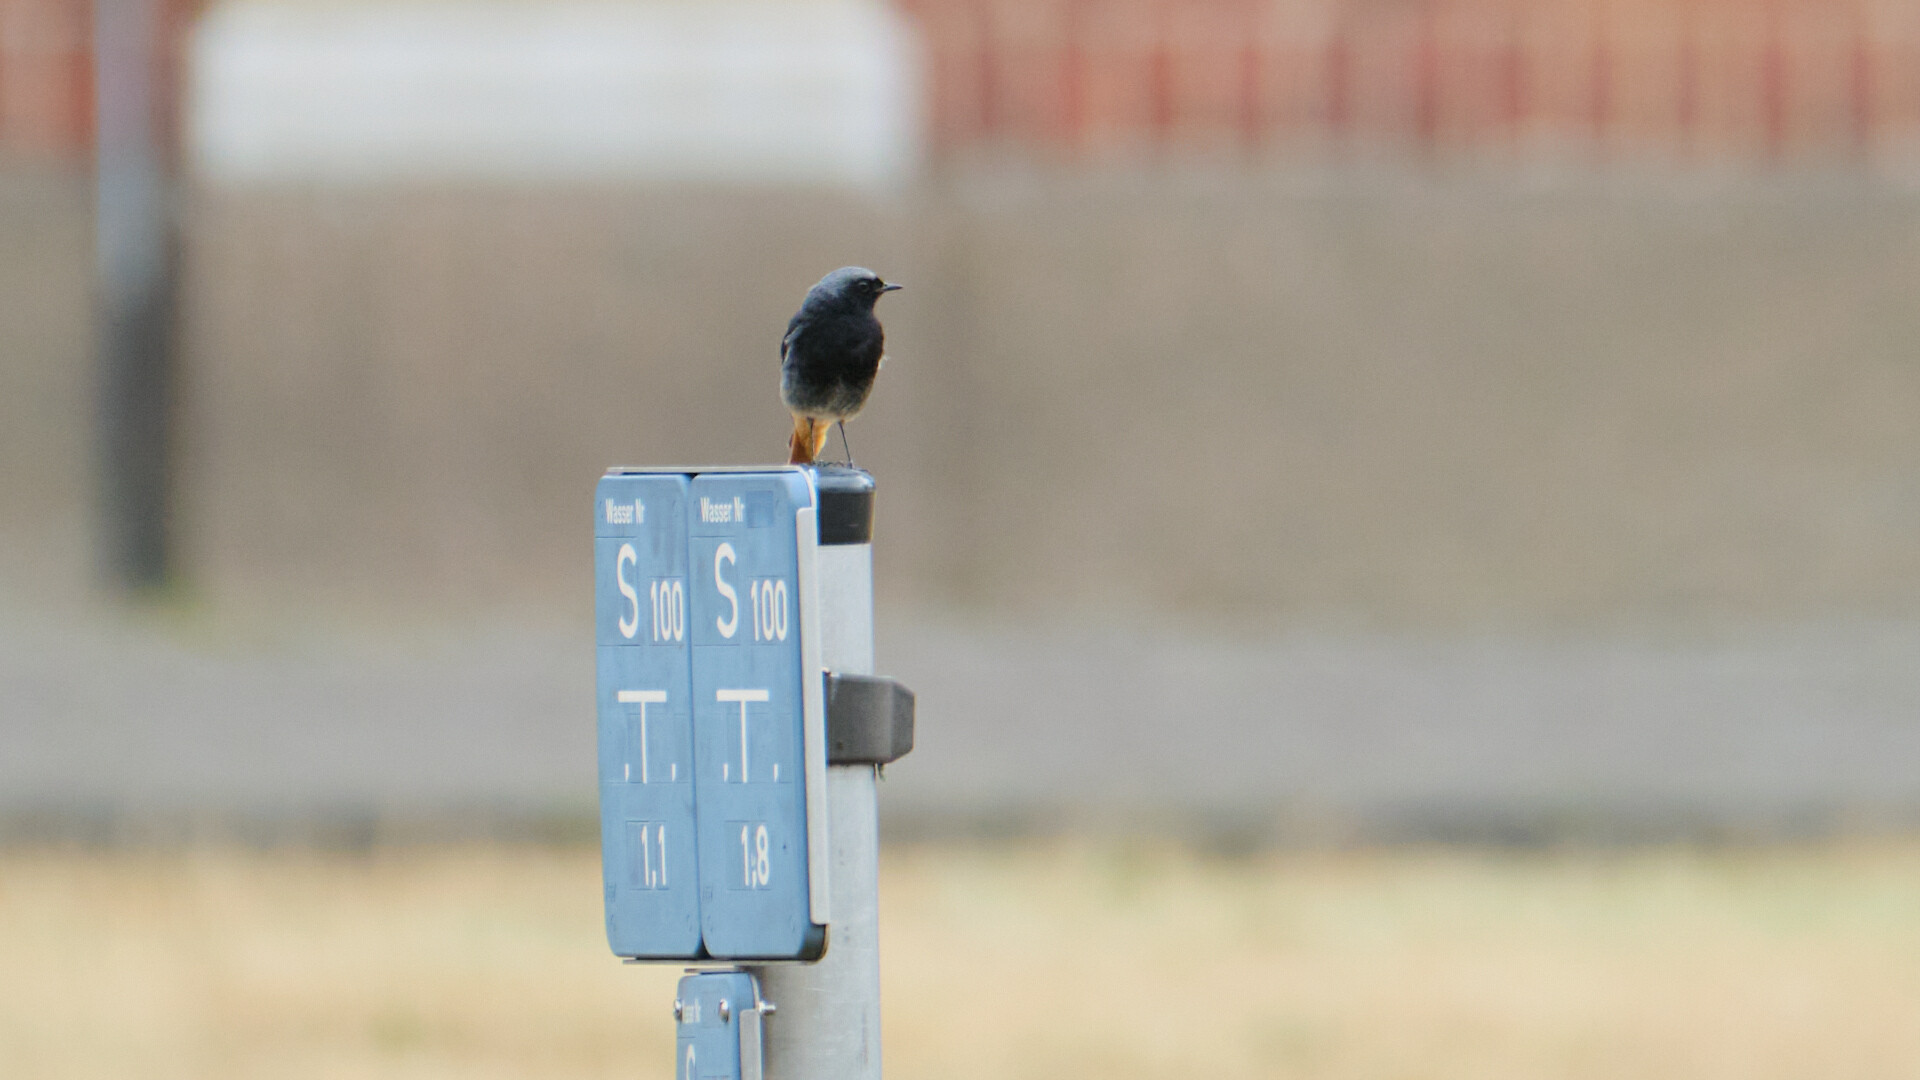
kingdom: Animalia
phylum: Chordata
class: Aves
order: Passeriformes
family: Muscicapidae
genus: Phoenicurus
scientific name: Phoenicurus ochruros
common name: Black redstart
